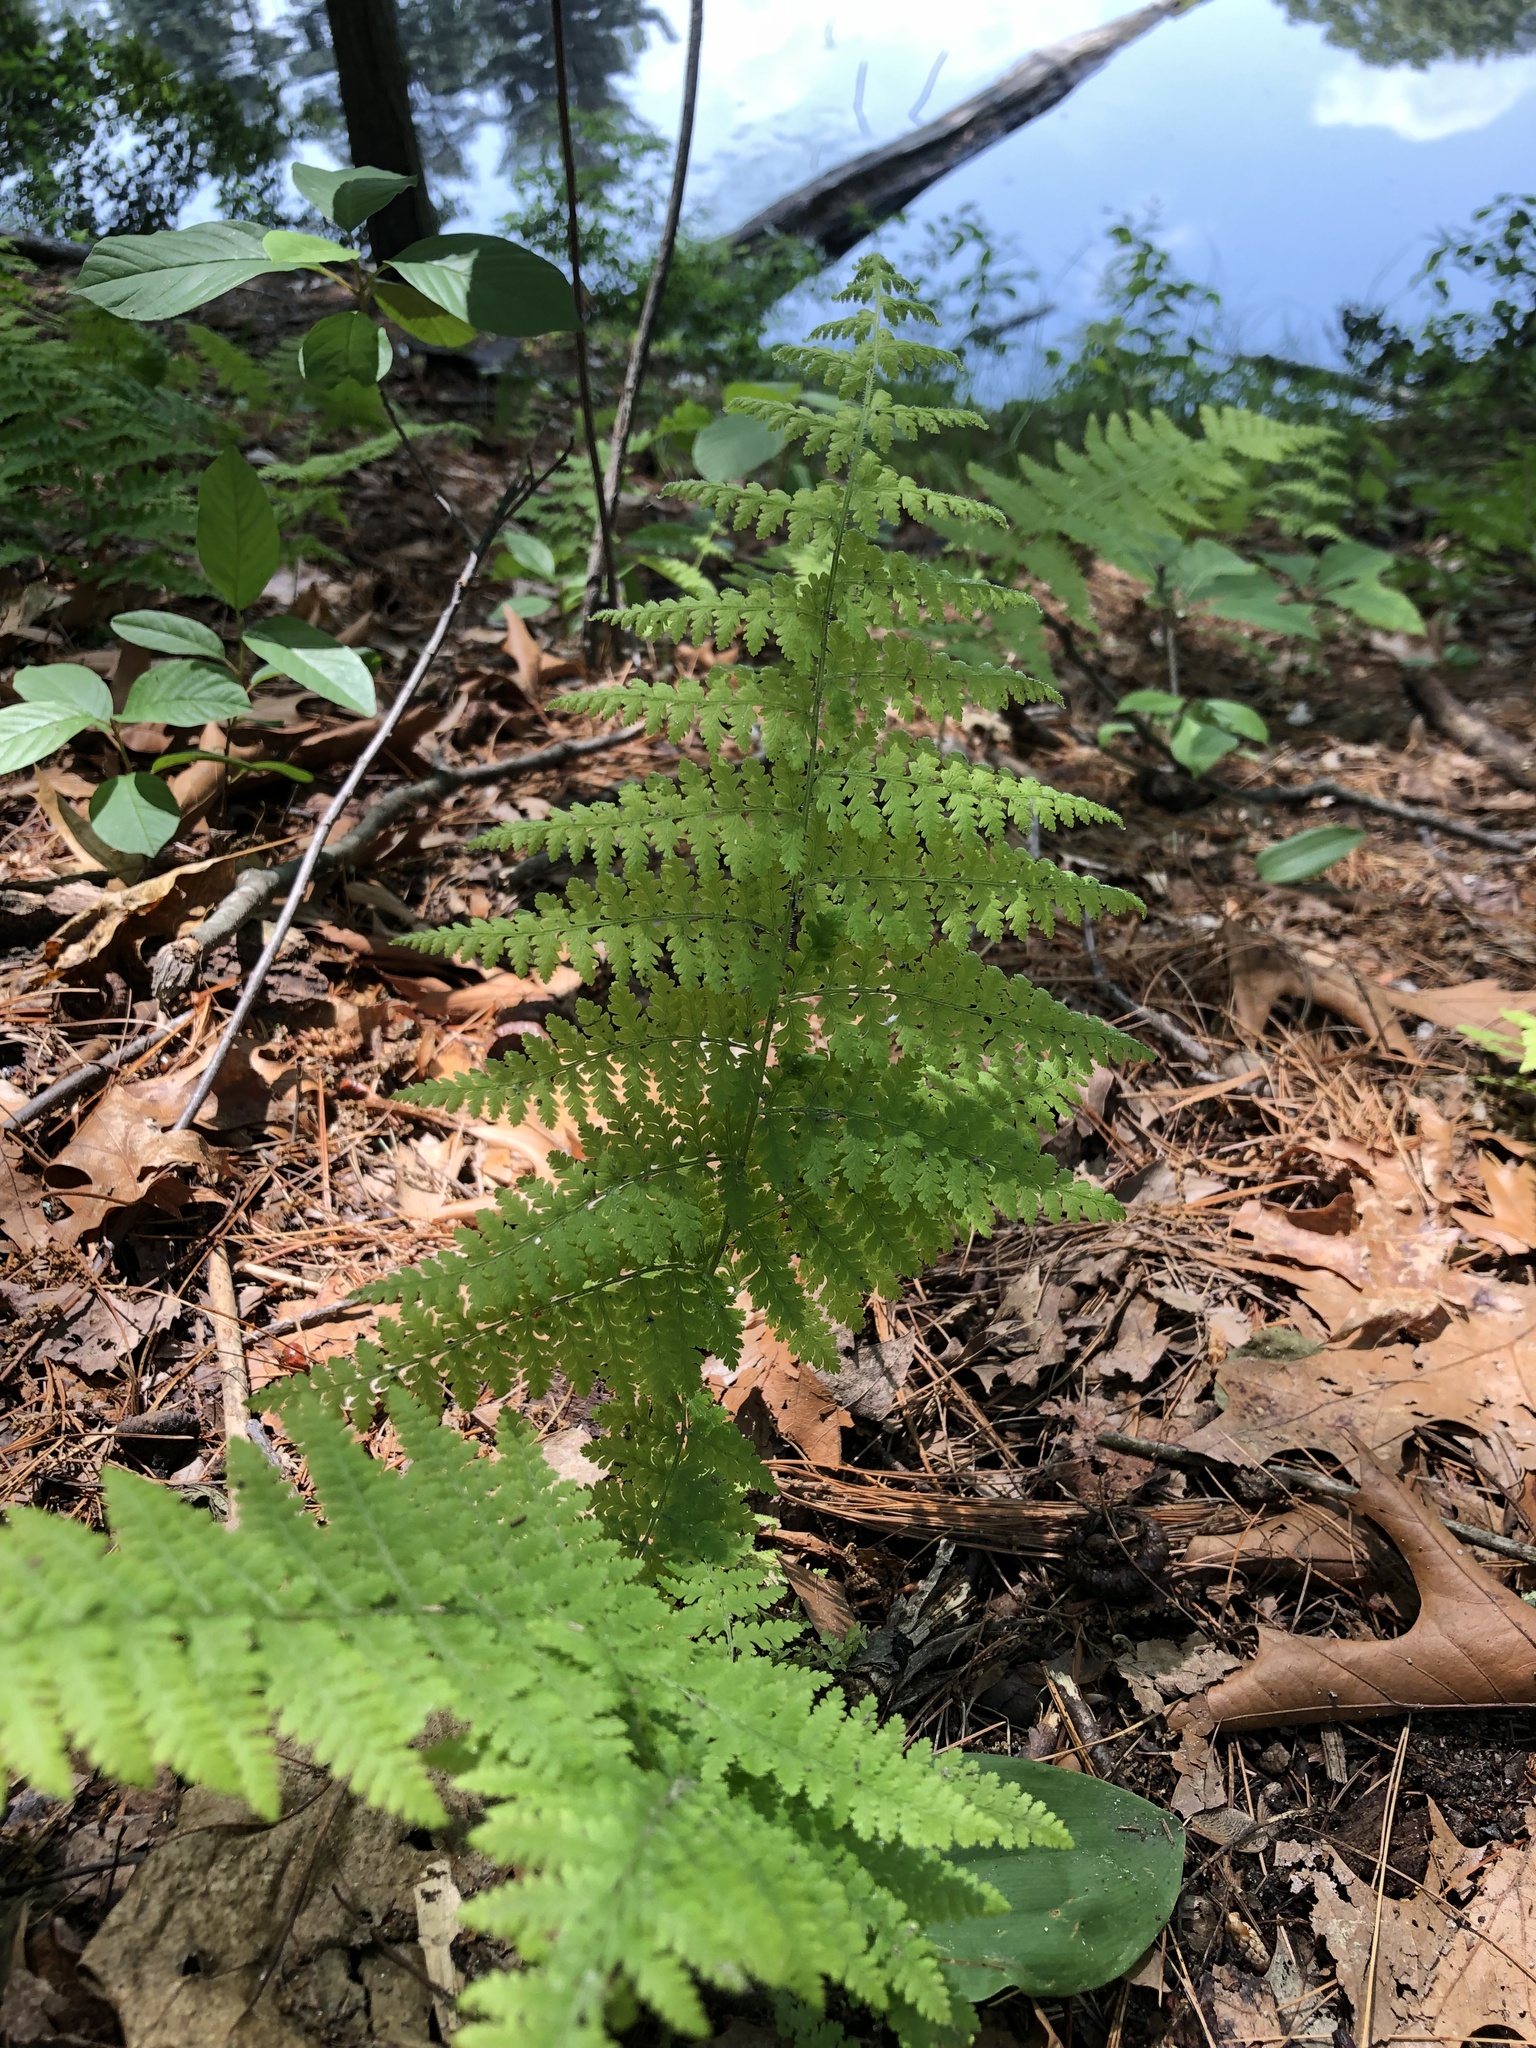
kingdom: Plantae
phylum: Tracheophyta
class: Polypodiopsida
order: Polypodiales
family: Dennstaedtiaceae
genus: Sitobolium
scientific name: Sitobolium punctilobum
